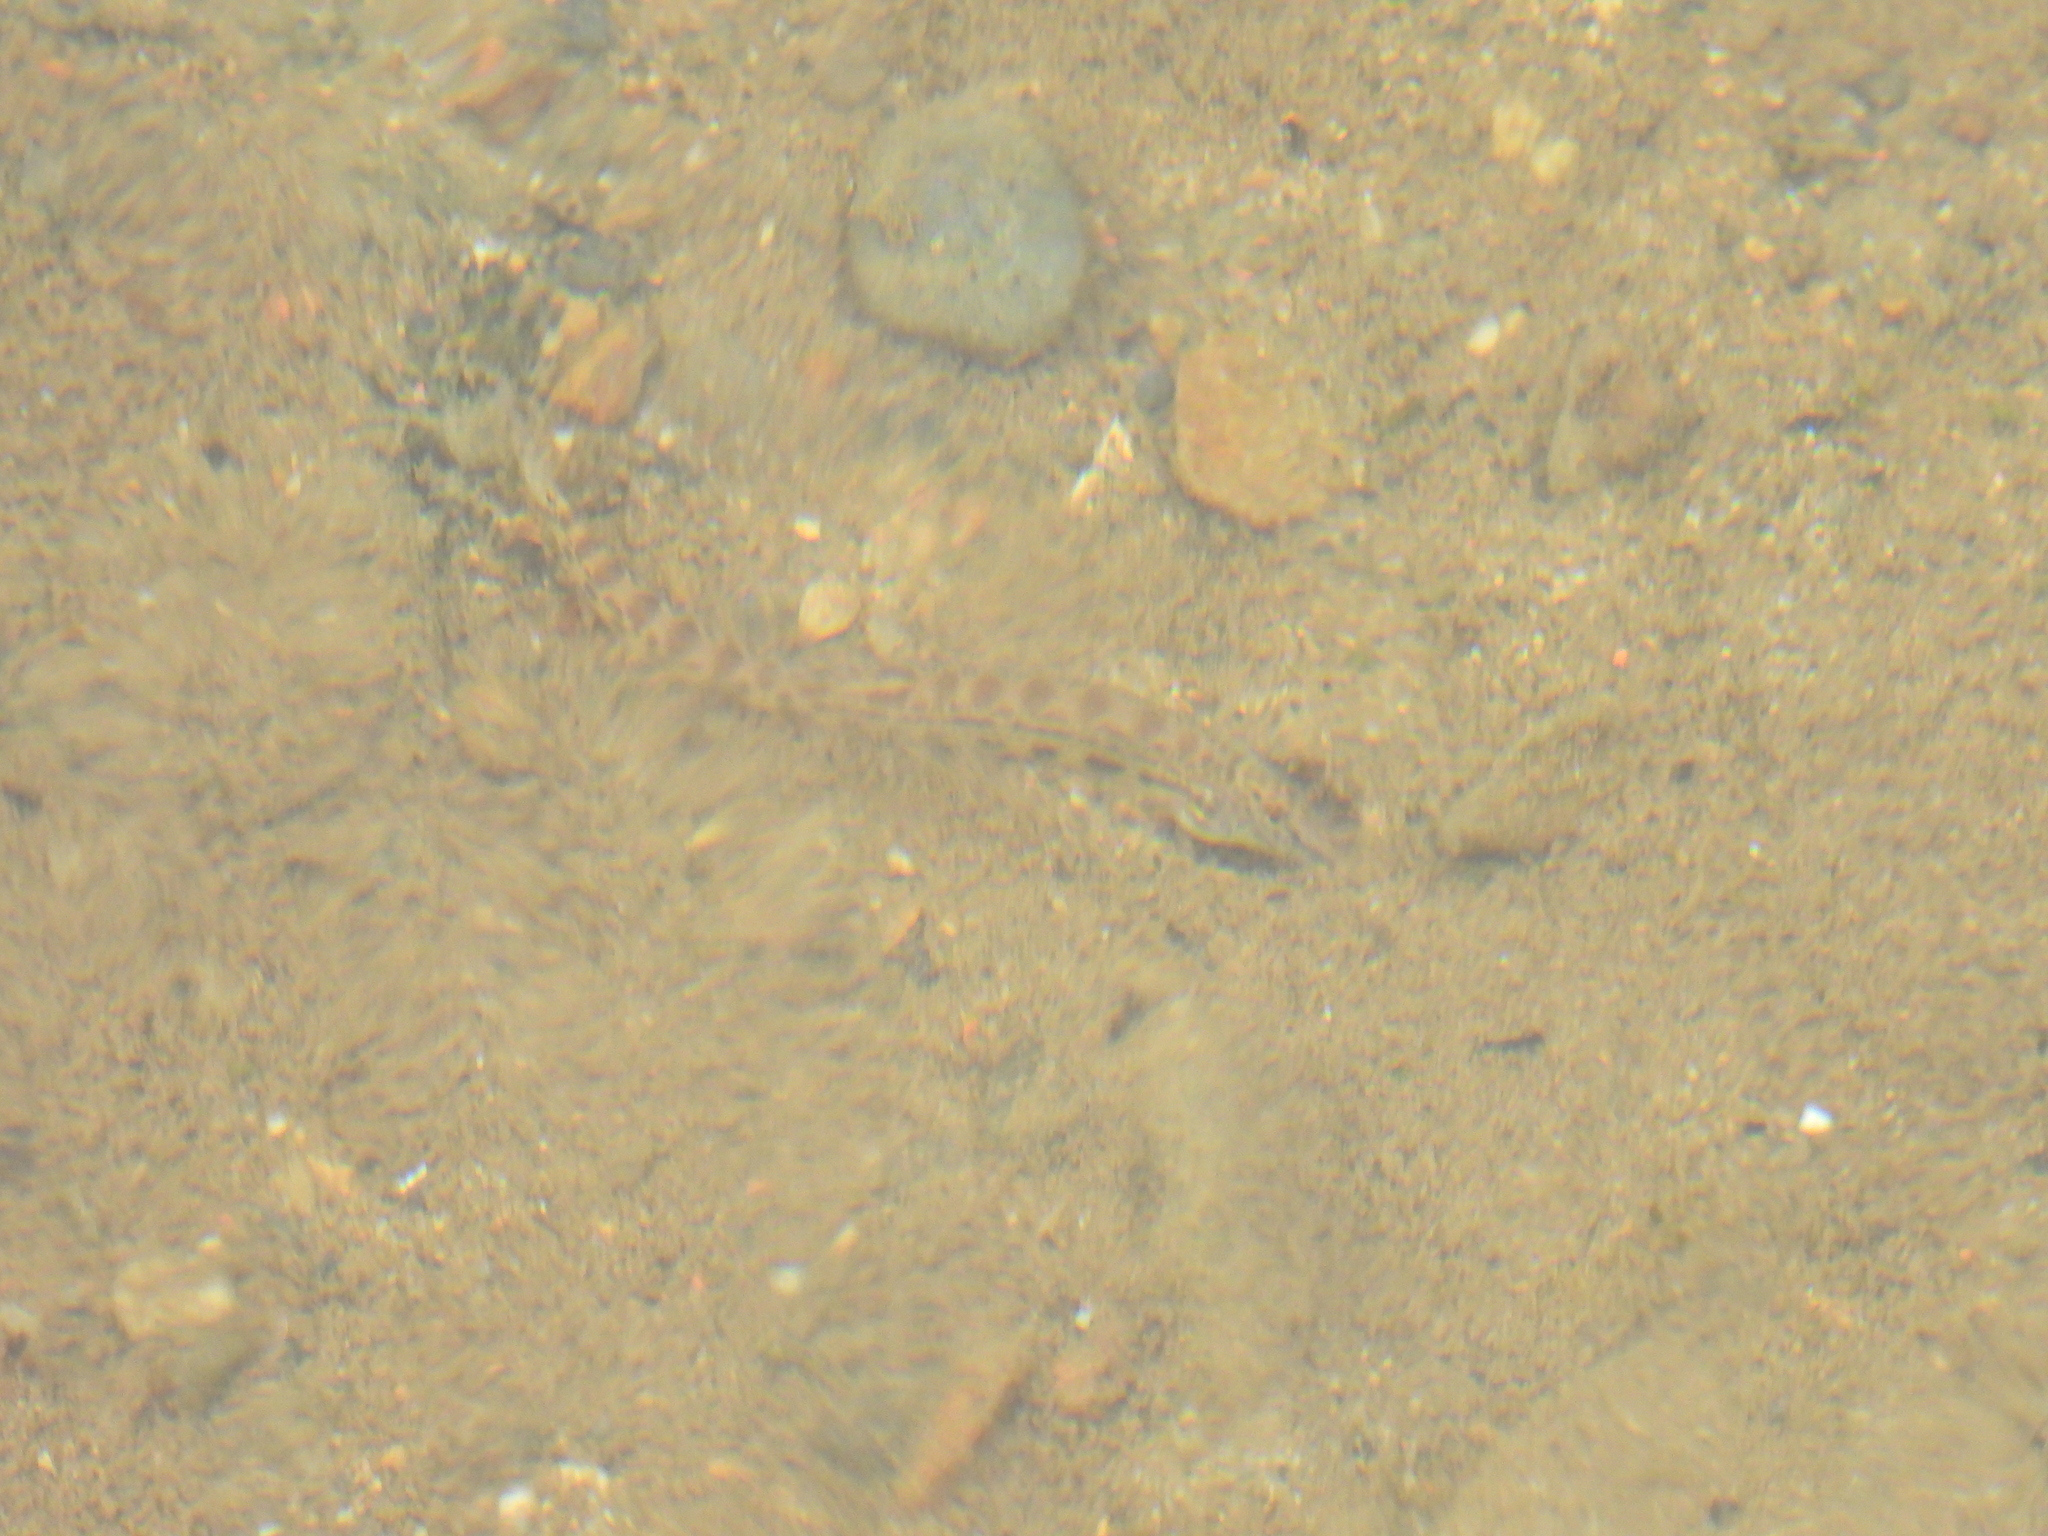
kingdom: Animalia
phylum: Chordata
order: Cypriniformes
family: Cobitidae
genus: Cobitis
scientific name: Cobitis sinensis
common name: Siberian spiny loach
